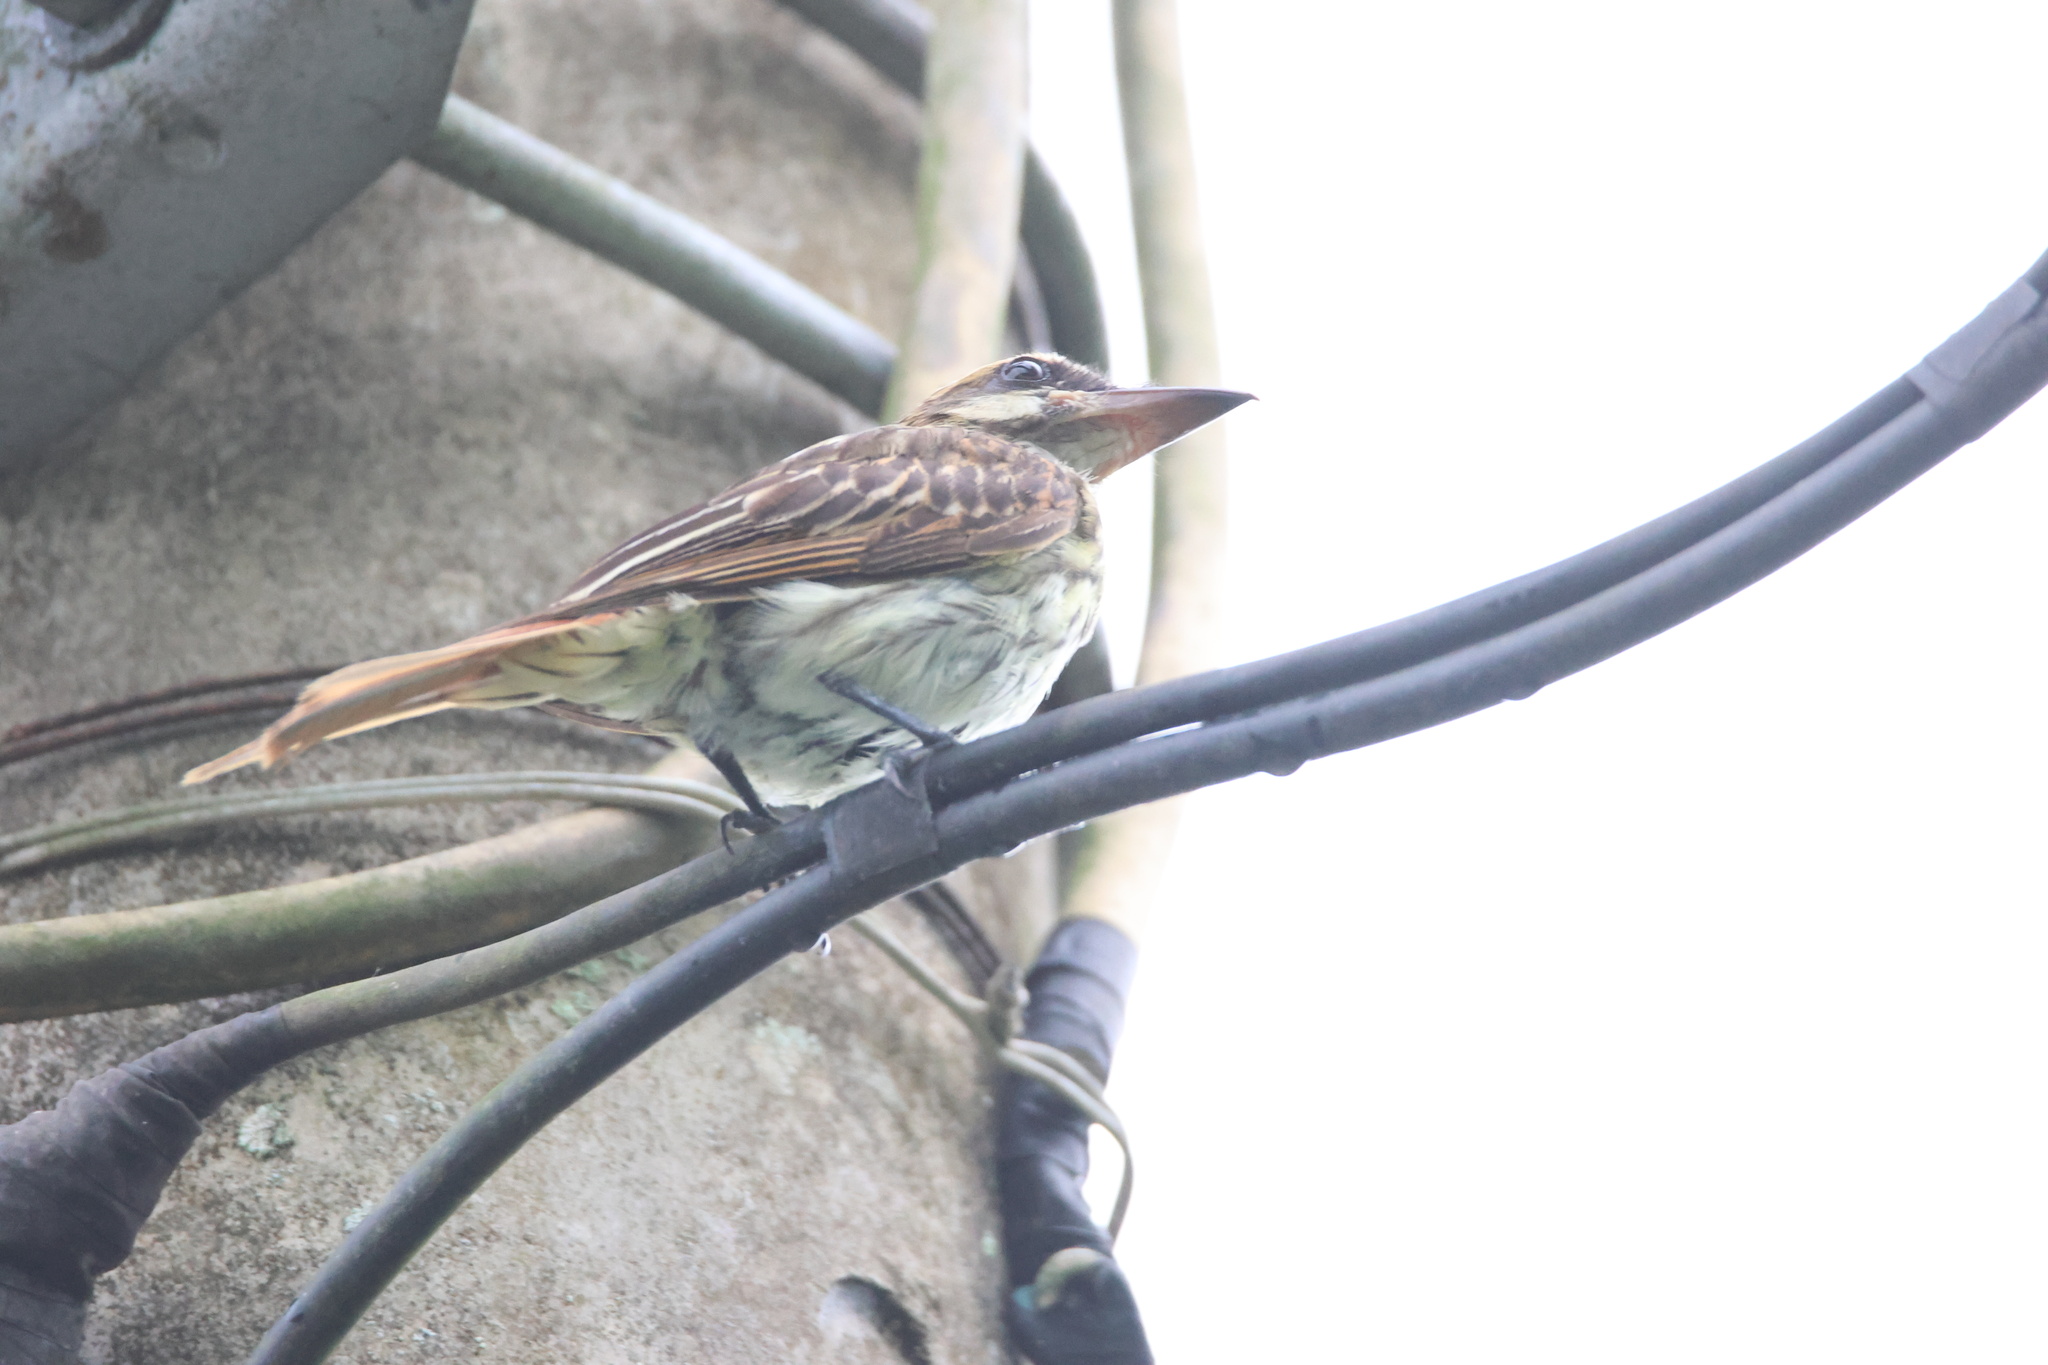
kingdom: Animalia
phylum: Chordata
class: Aves
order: Passeriformes
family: Tyrannidae
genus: Myiodynastes
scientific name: Myiodynastes maculatus
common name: Streaked flycatcher
